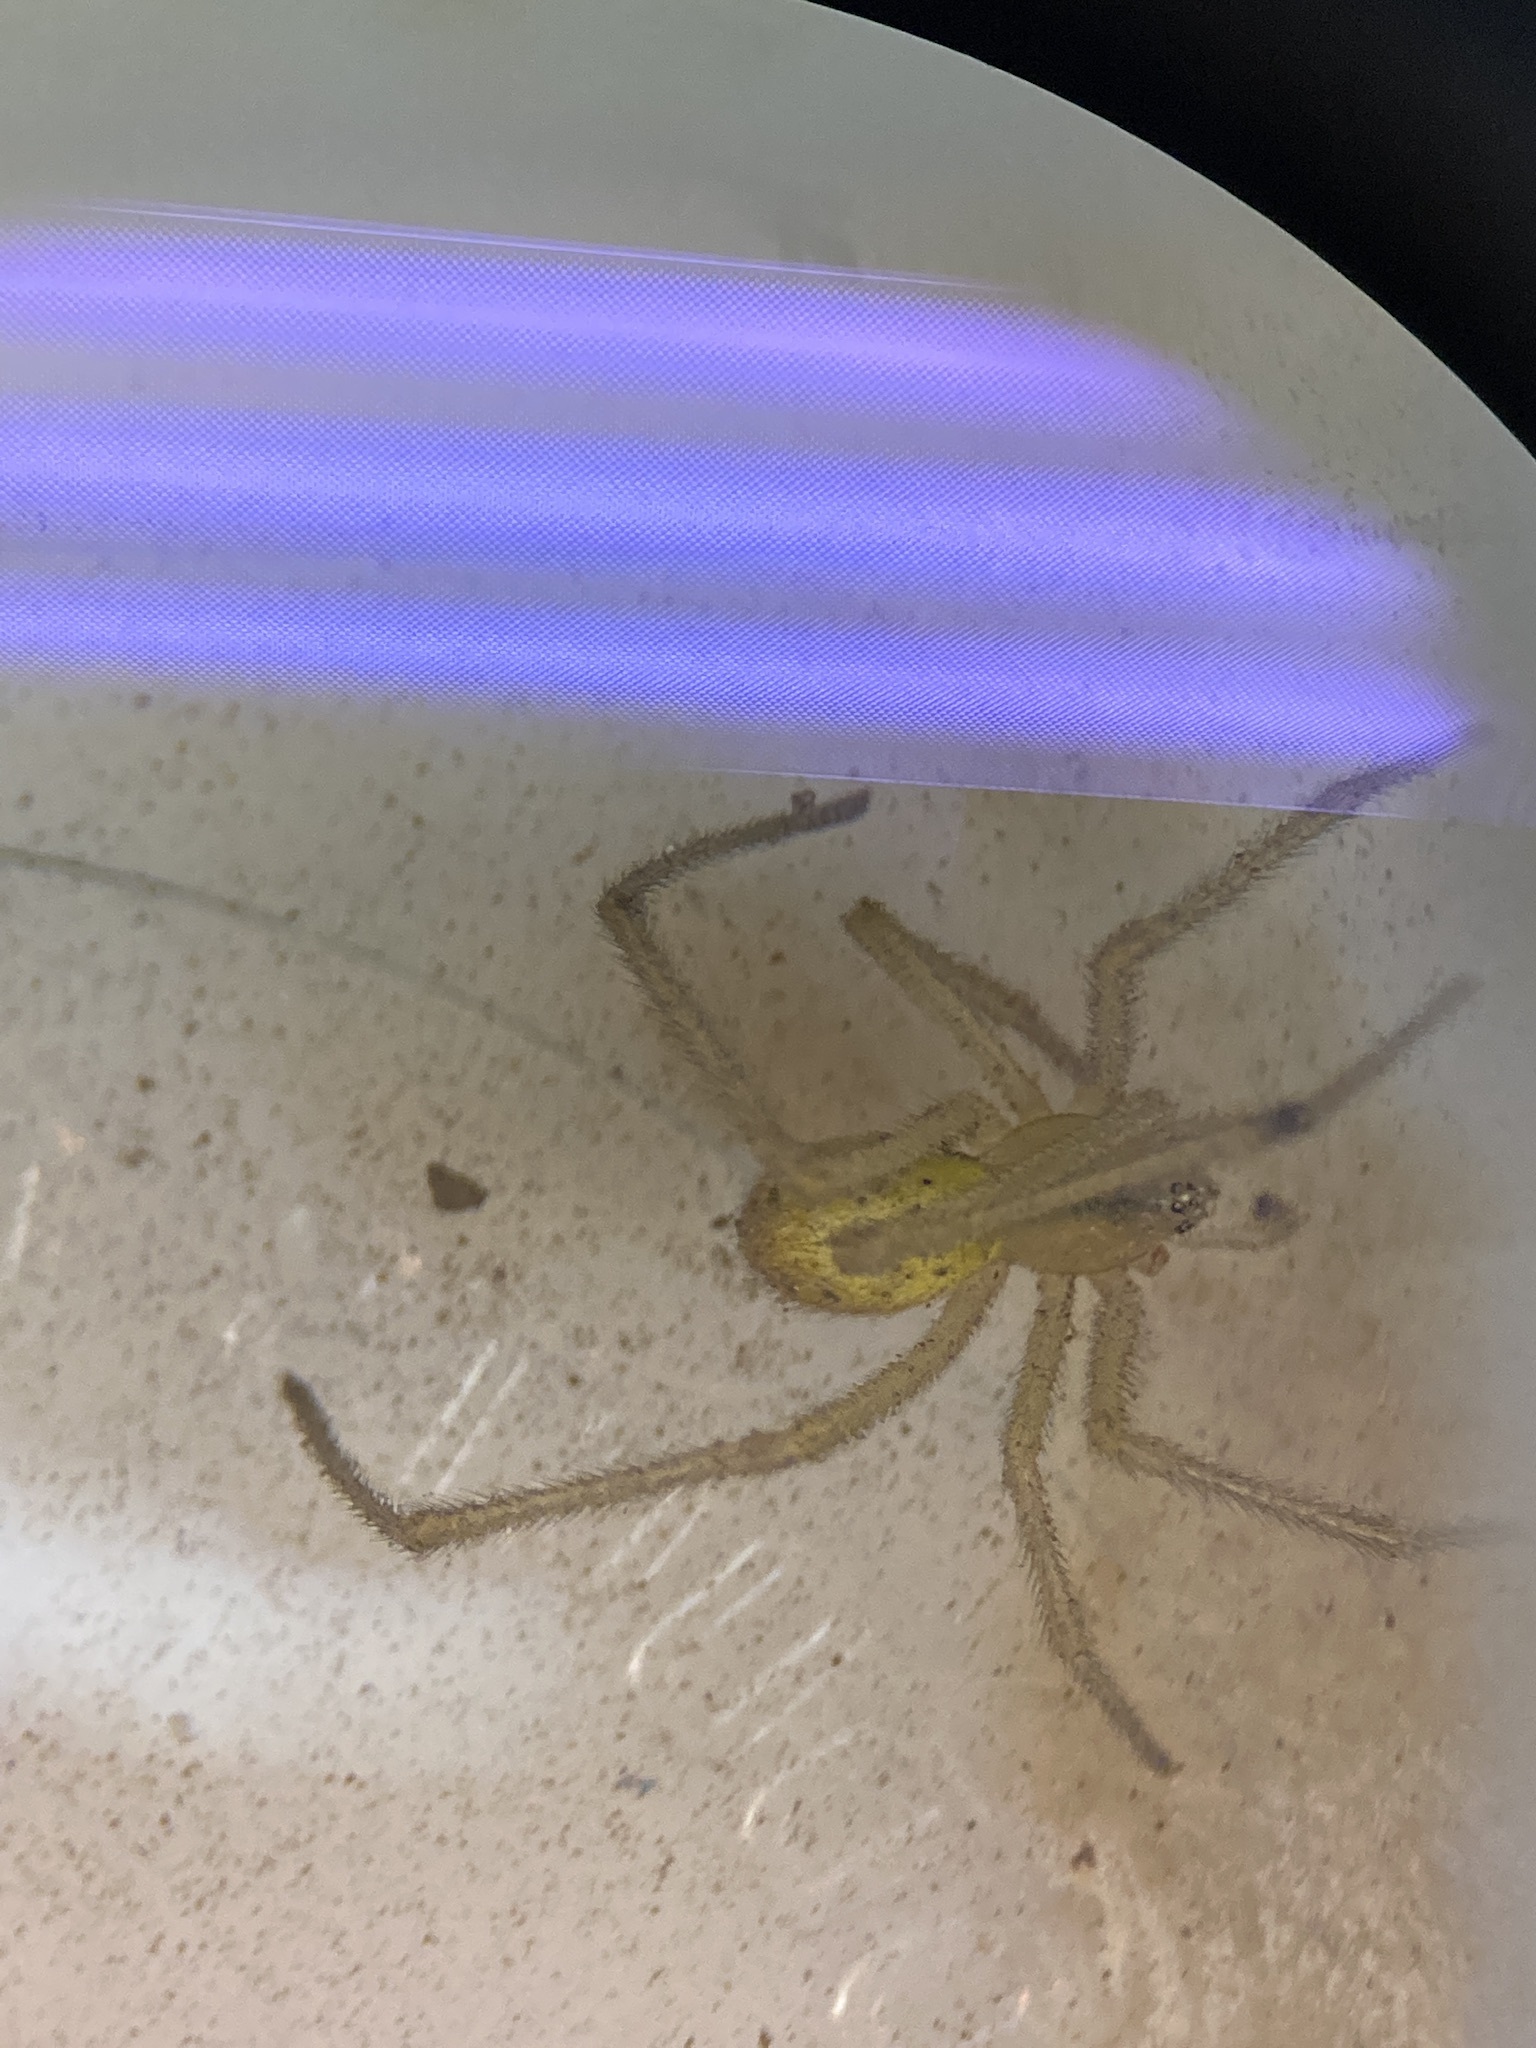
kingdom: Animalia
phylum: Arthropoda
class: Arachnida
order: Araneae
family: Theridiidae
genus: Enoplognatha
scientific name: Enoplognatha ovata
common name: Common candy-striped spider
